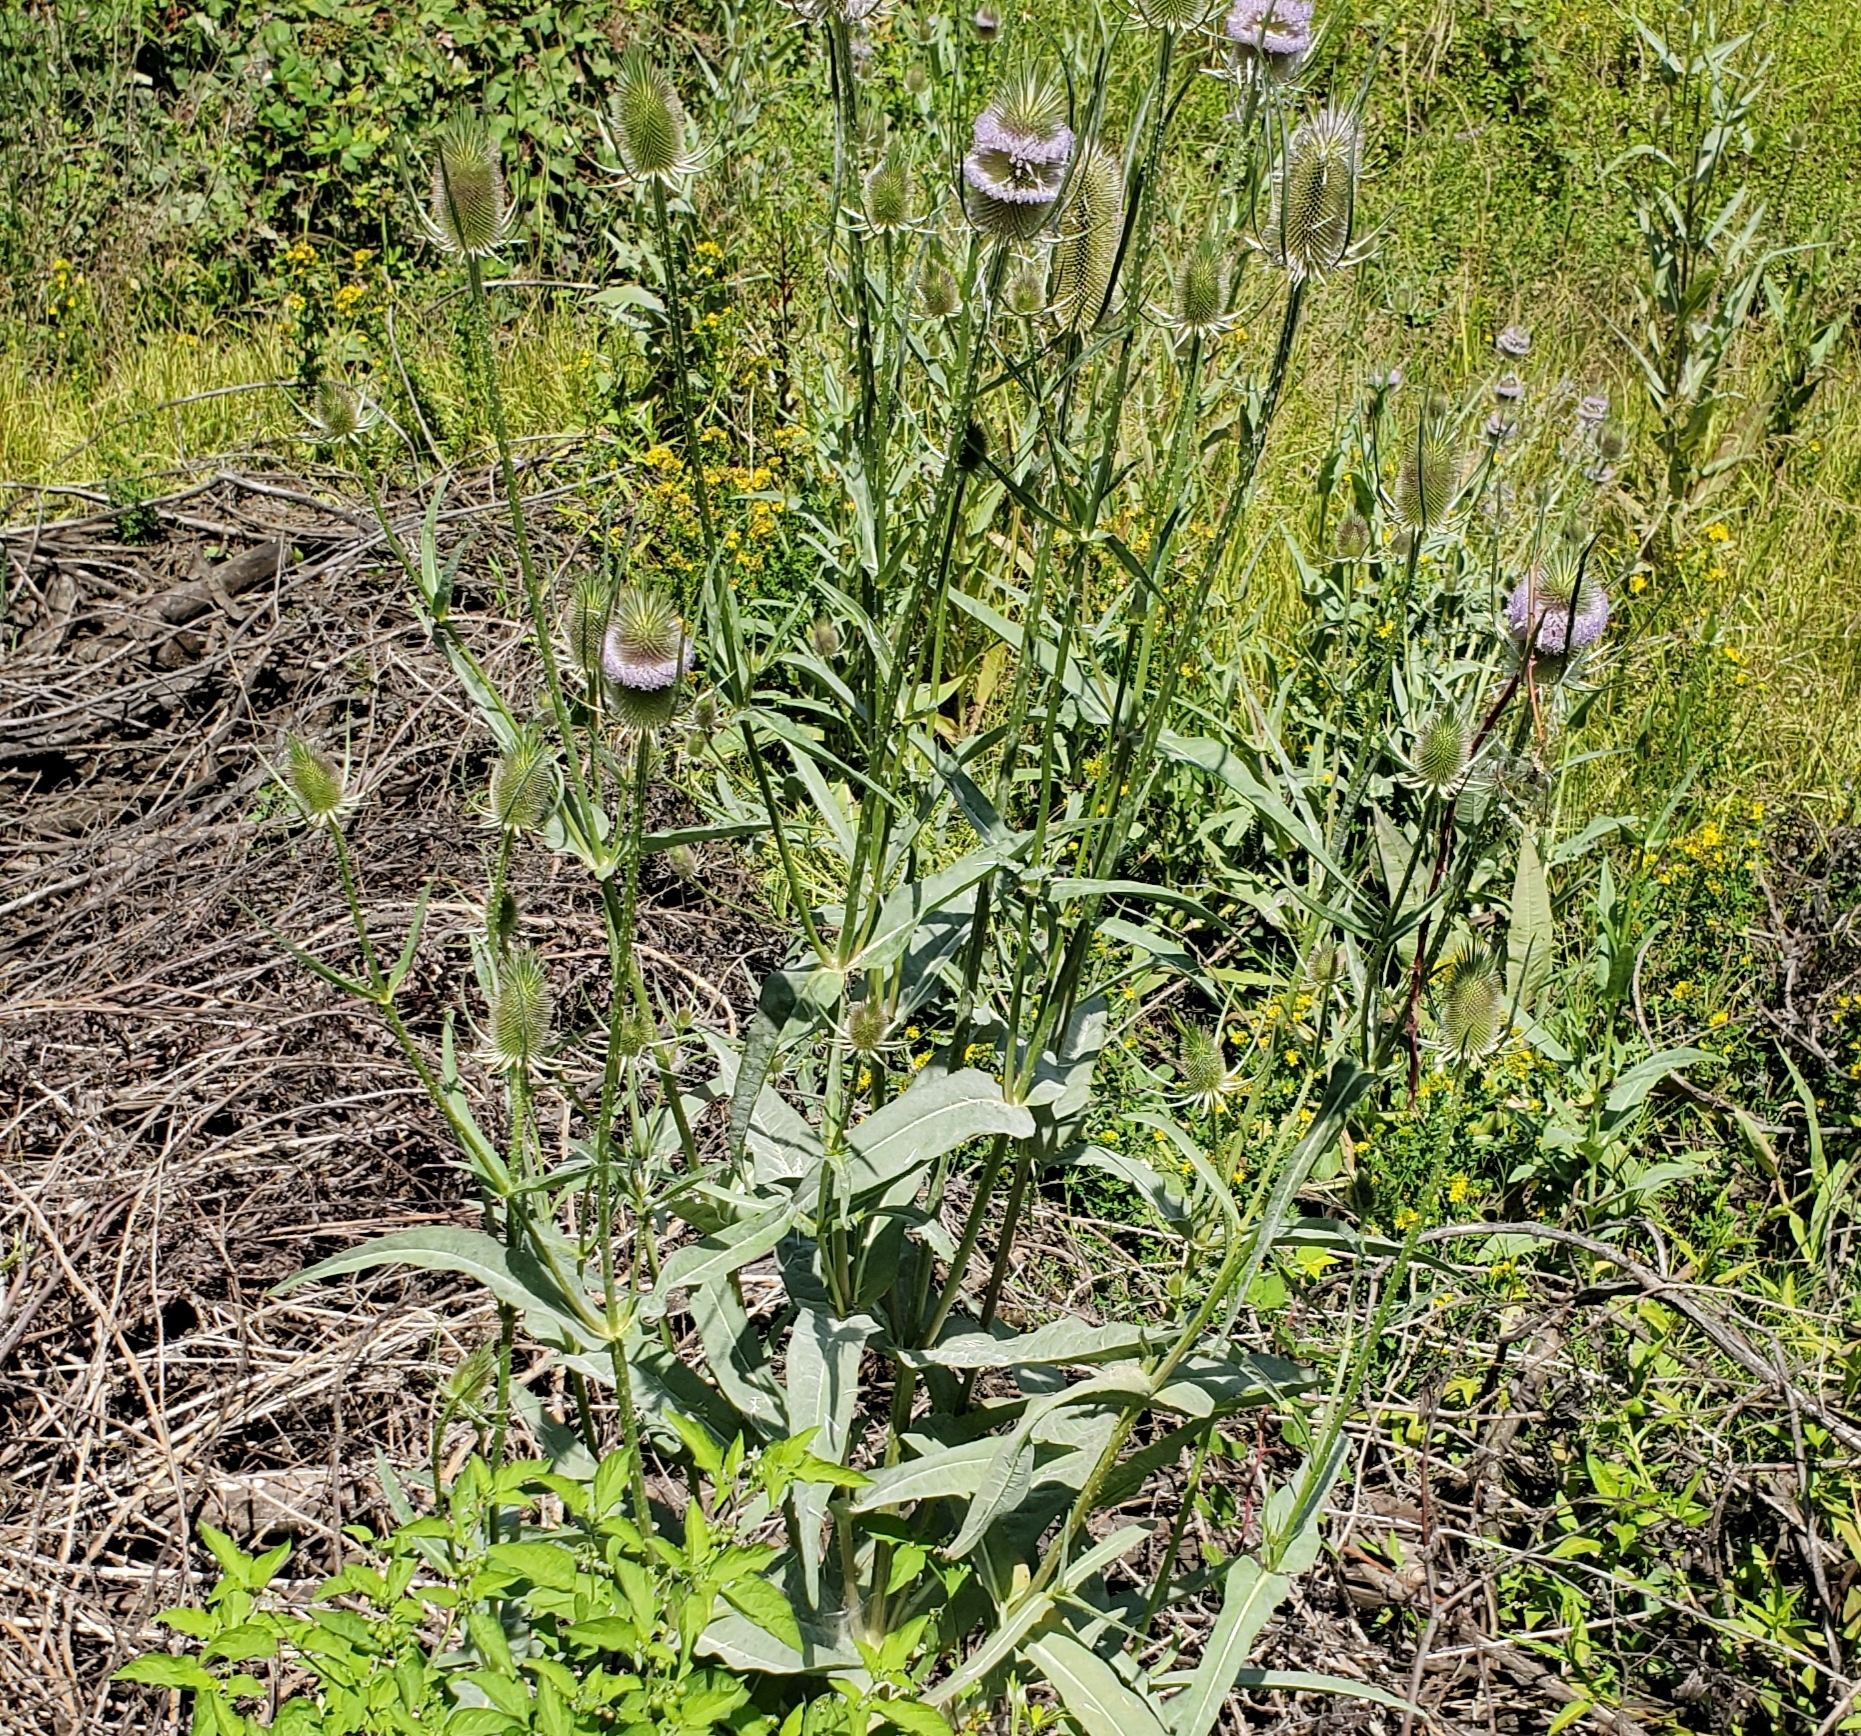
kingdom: Plantae
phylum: Tracheophyta
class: Magnoliopsida
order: Dipsacales
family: Caprifoliaceae
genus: Dipsacus
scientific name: Dipsacus fullonum
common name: Teasel
